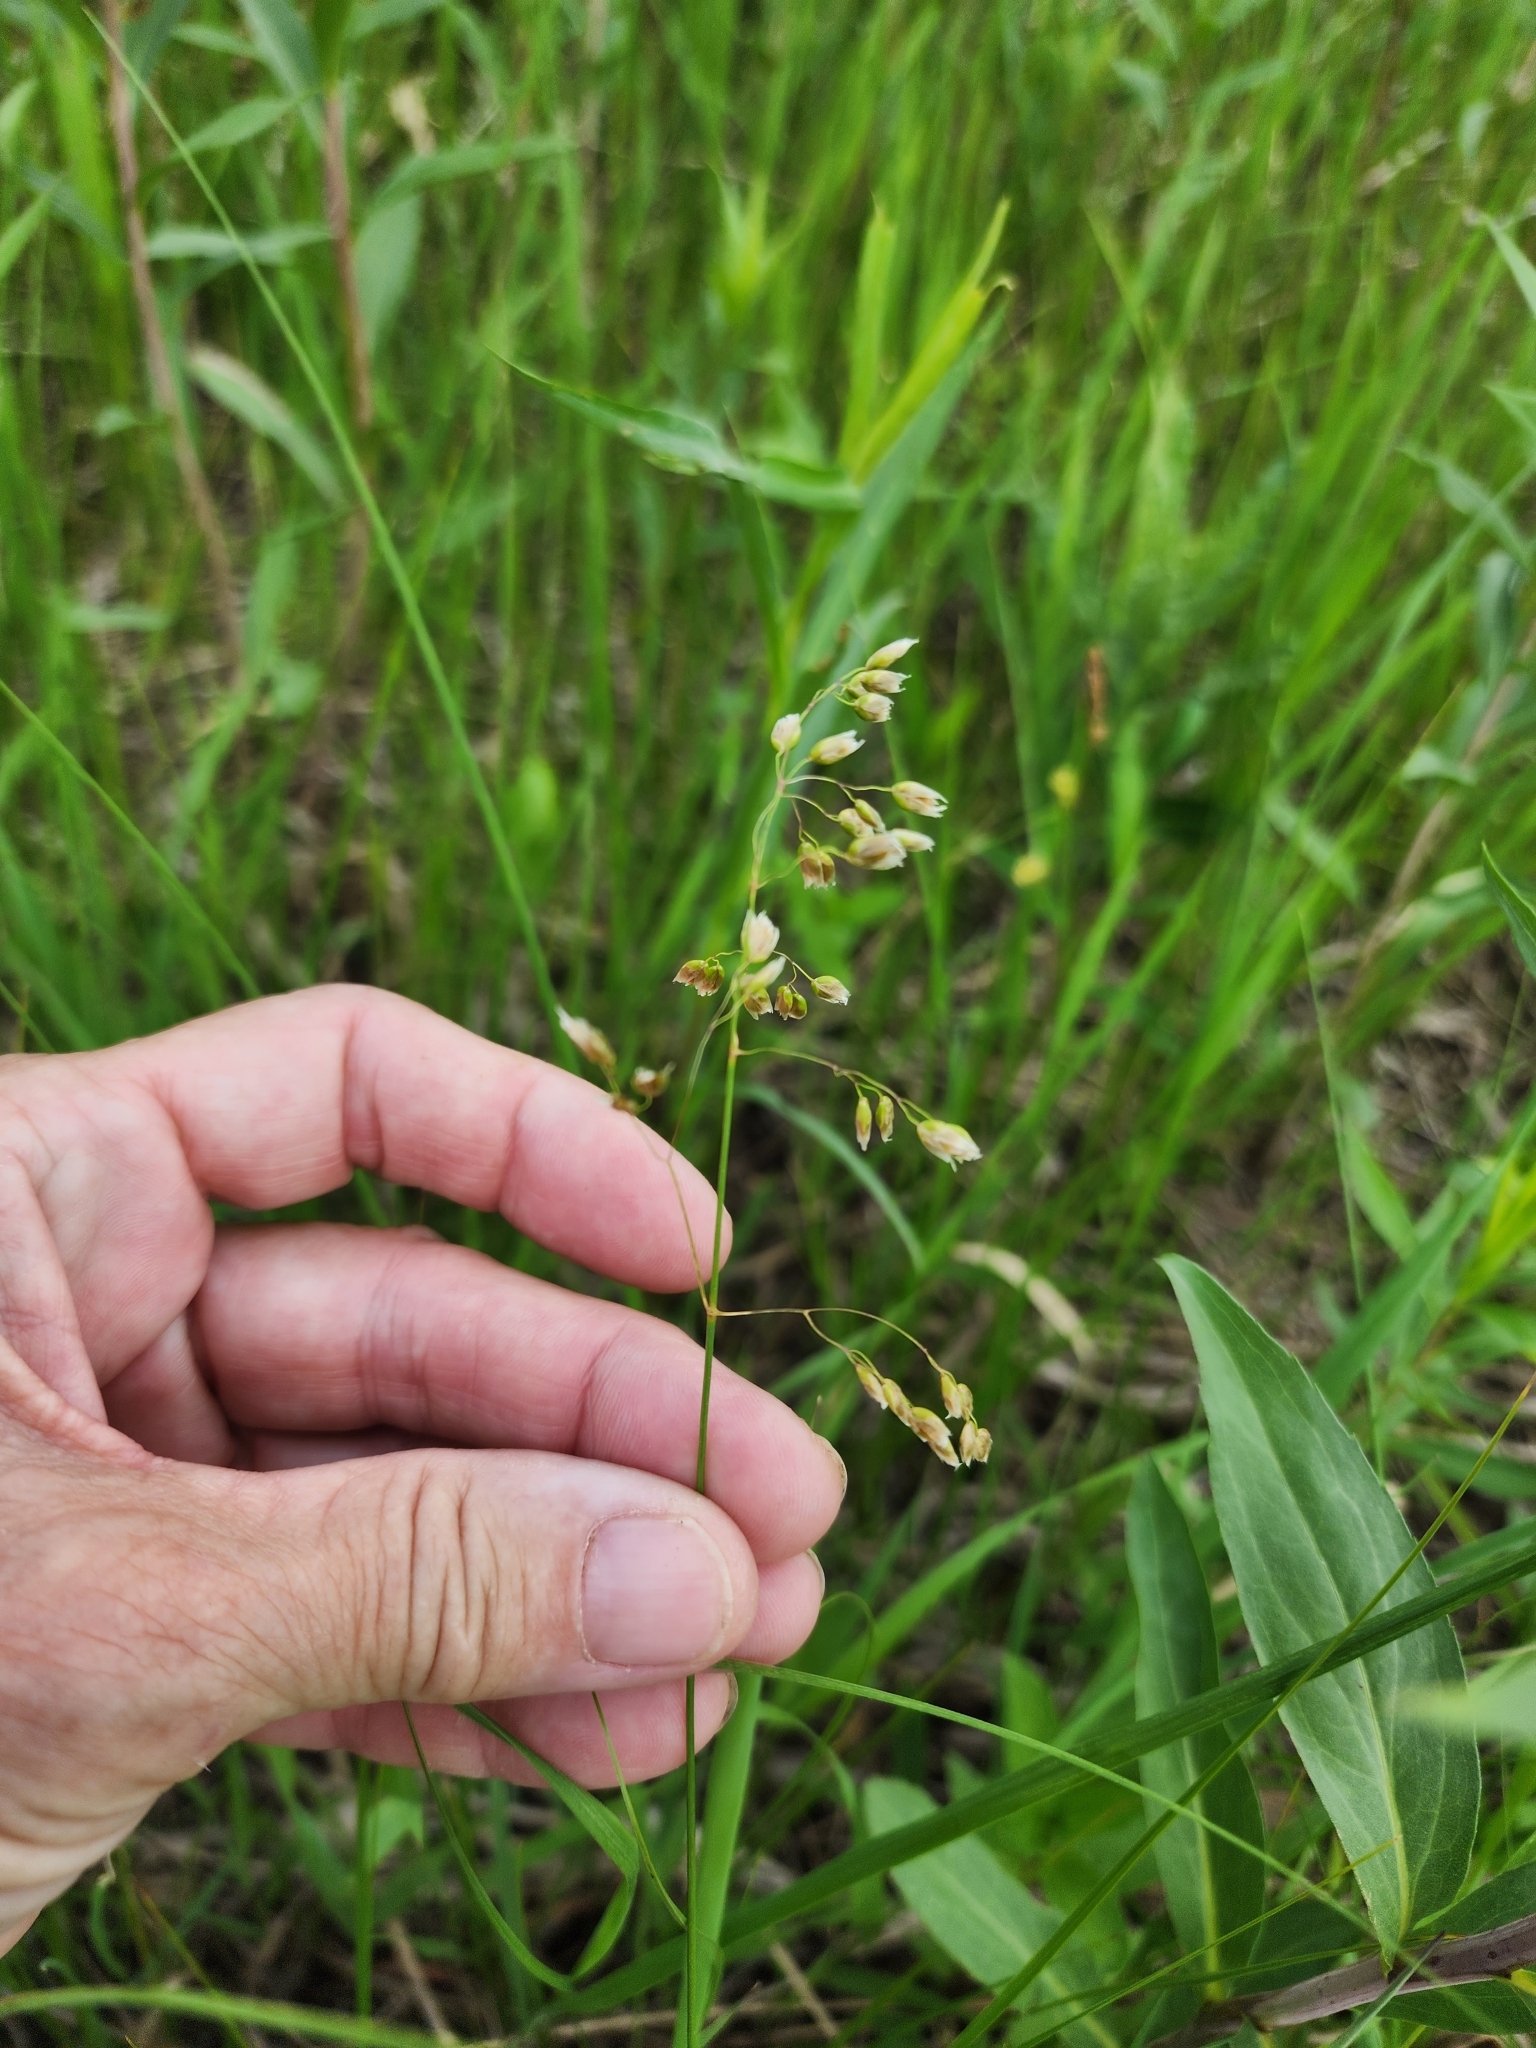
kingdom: Plantae
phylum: Tracheophyta
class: Liliopsida
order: Poales
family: Poaceae
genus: Anthoxanthum
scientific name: Anthoxanthum nitens
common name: Holy grass
